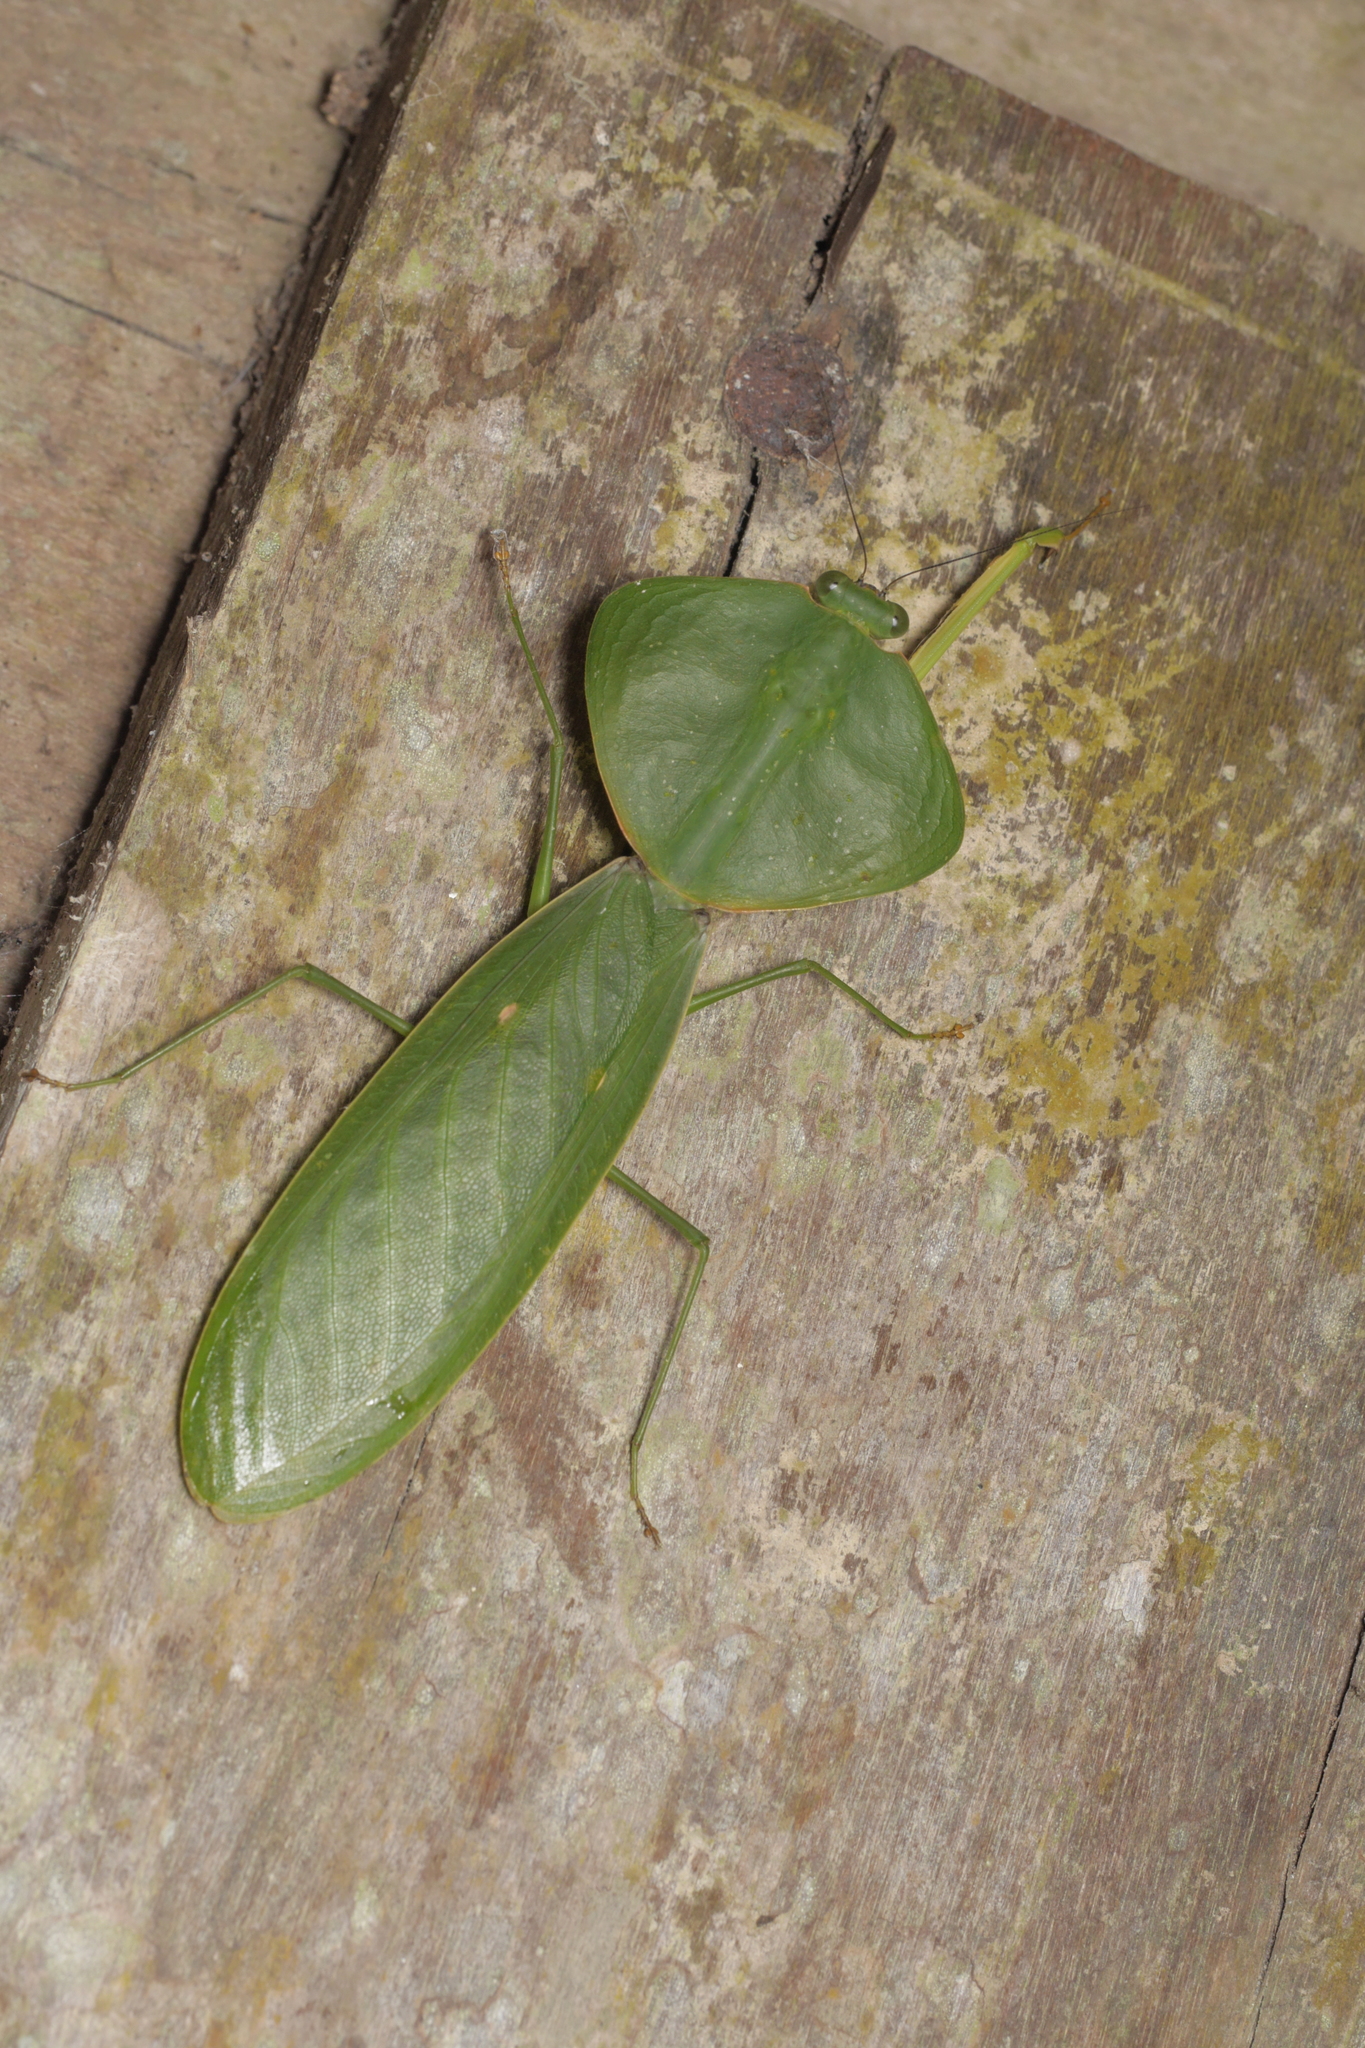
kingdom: Animalia
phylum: Arthropoda
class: Insecta
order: Mantodea
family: Mantidae
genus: Choeradodis
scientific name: Choeradodis rhombicollis
